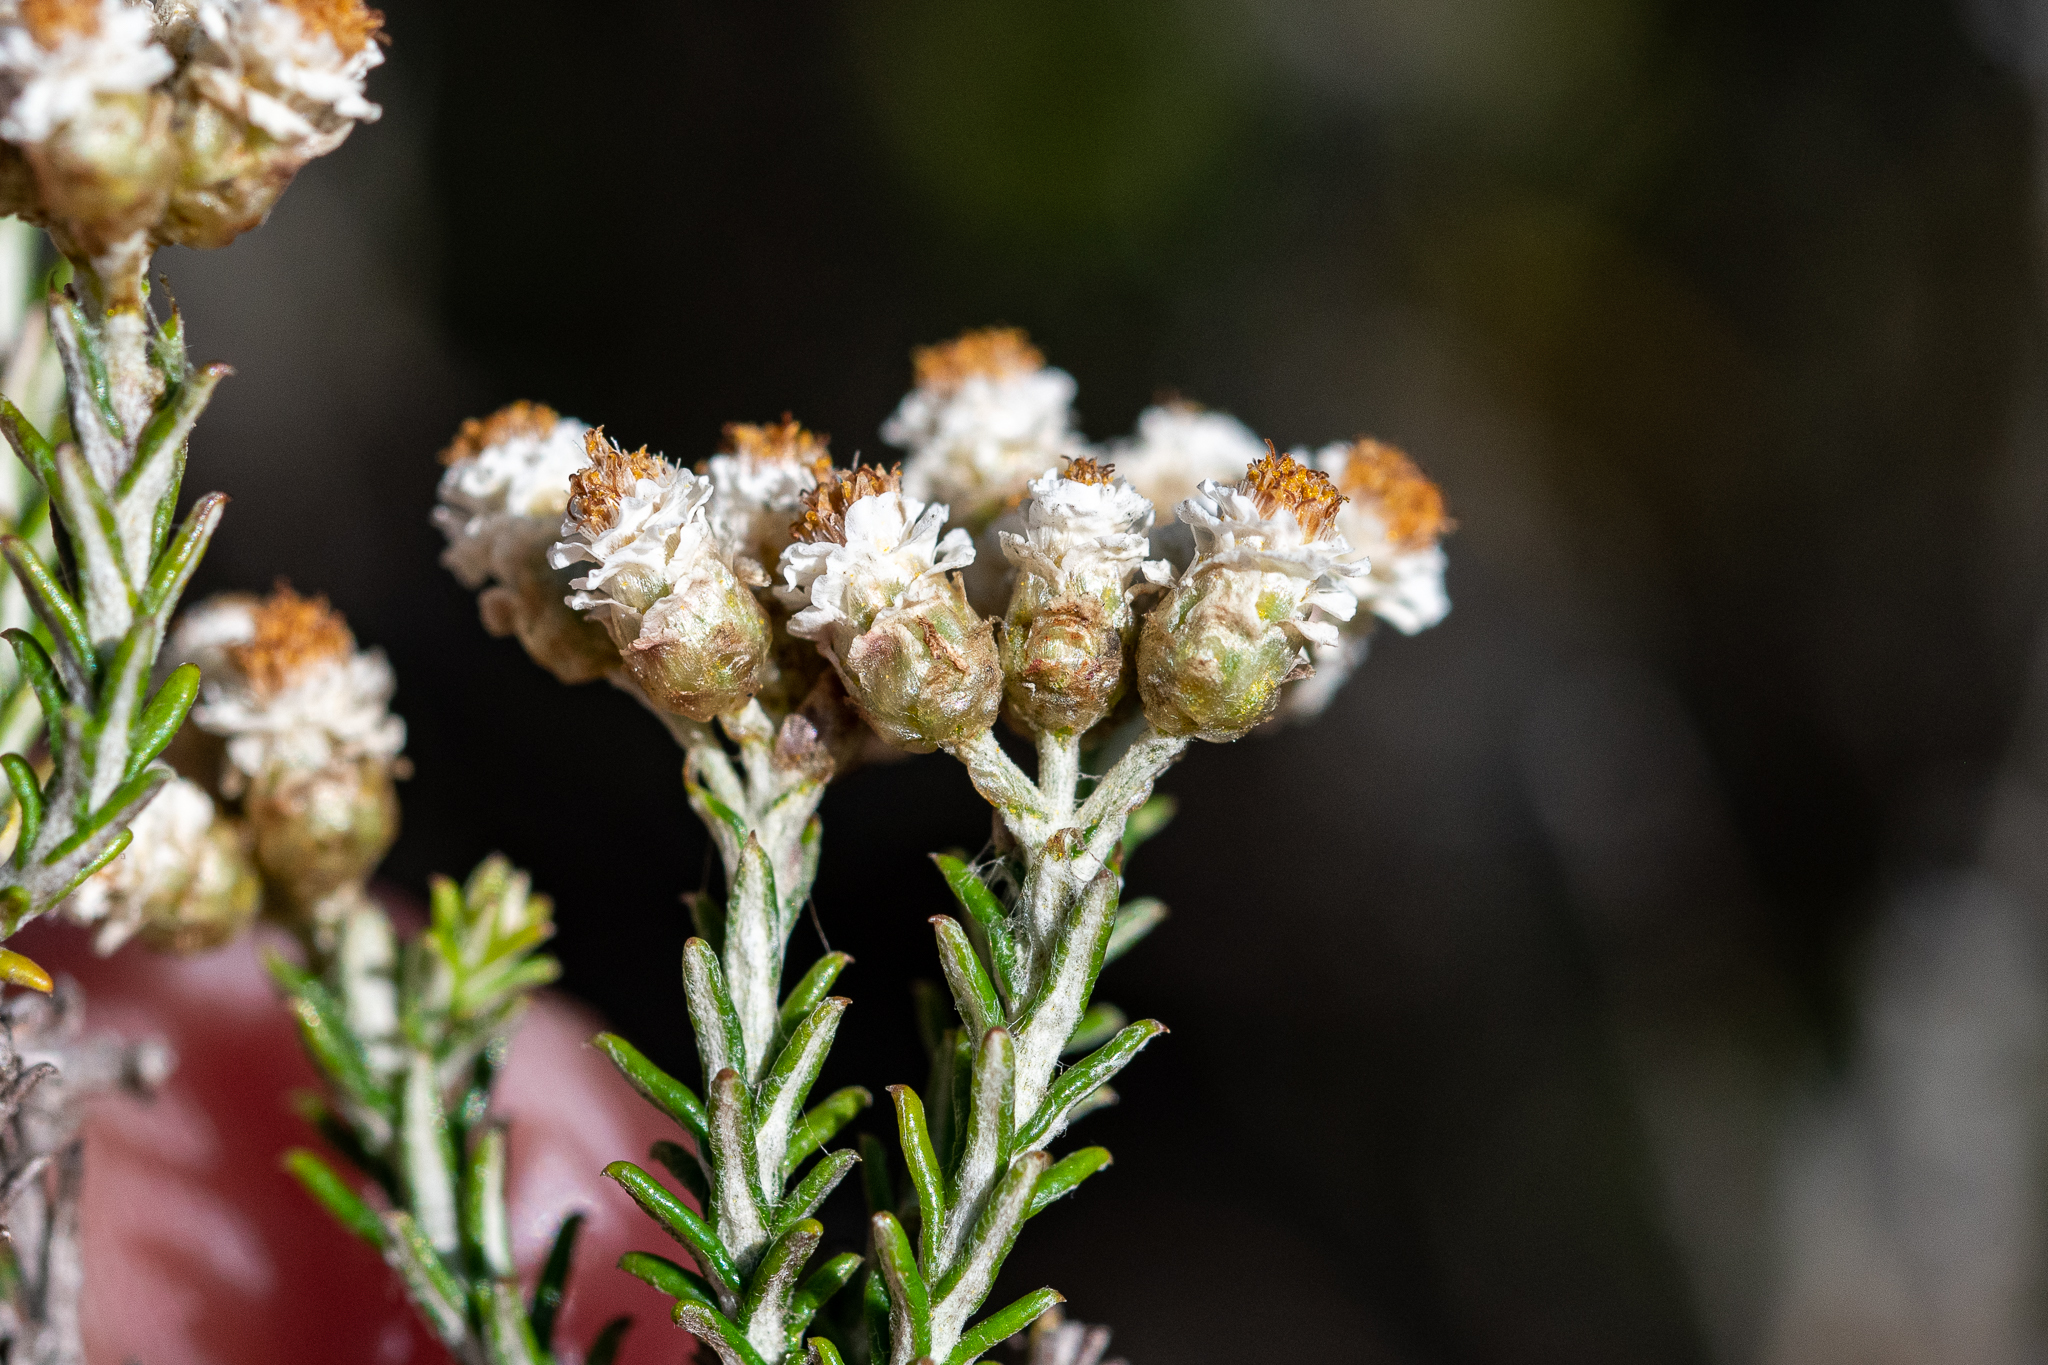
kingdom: Plantae
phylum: Tracheophyta
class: Magnoliopsida
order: Asterales
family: Asteraceae
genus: Helichrysum
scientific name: Helichrysum teretifolium
